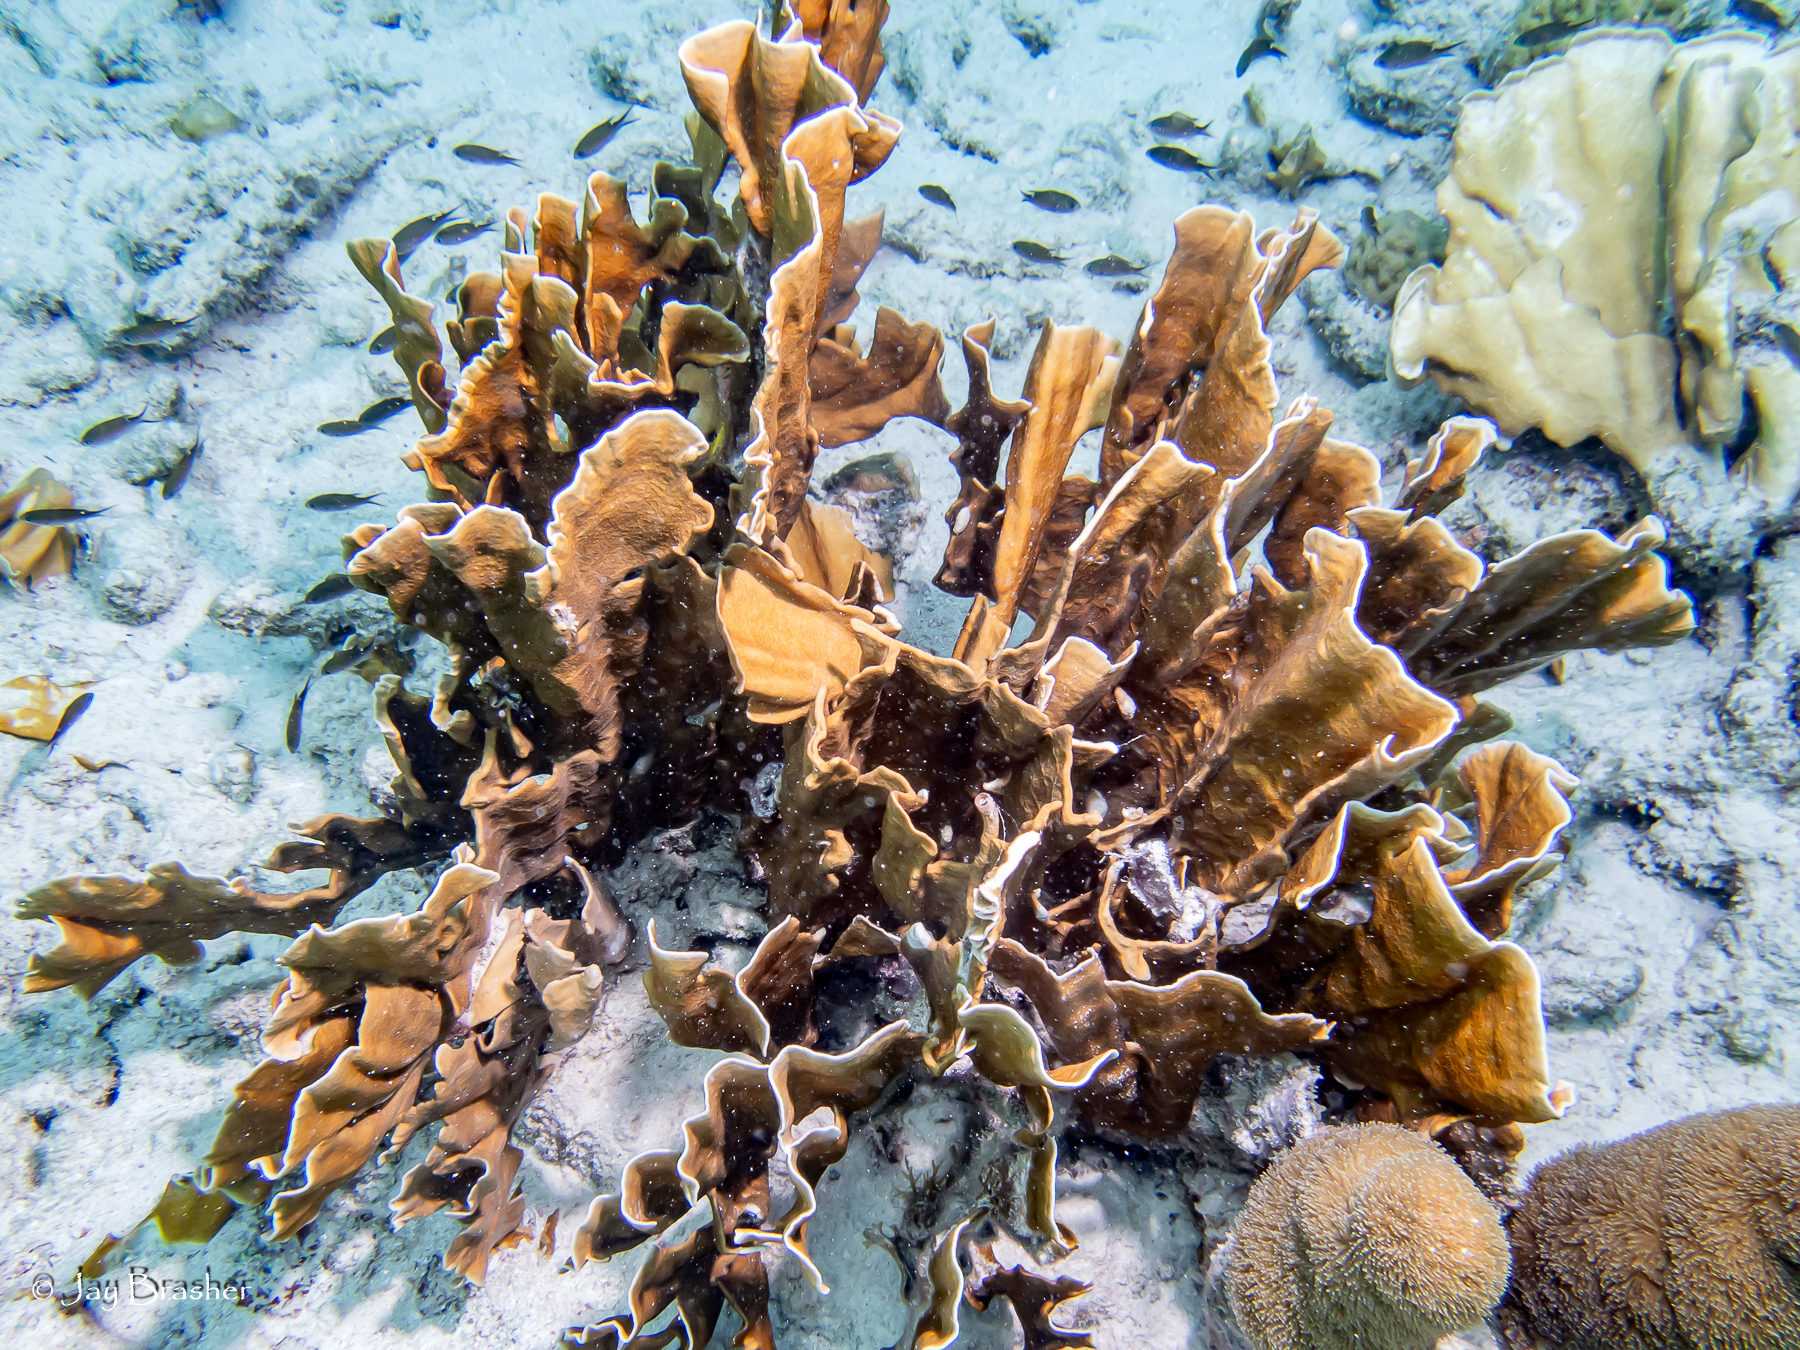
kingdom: Animalia
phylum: Cnidaria
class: Hydrozoa
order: Anthoathecata
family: Milleporidae
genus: Millepora
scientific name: Millepora complanata
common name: Bladed fire coral
